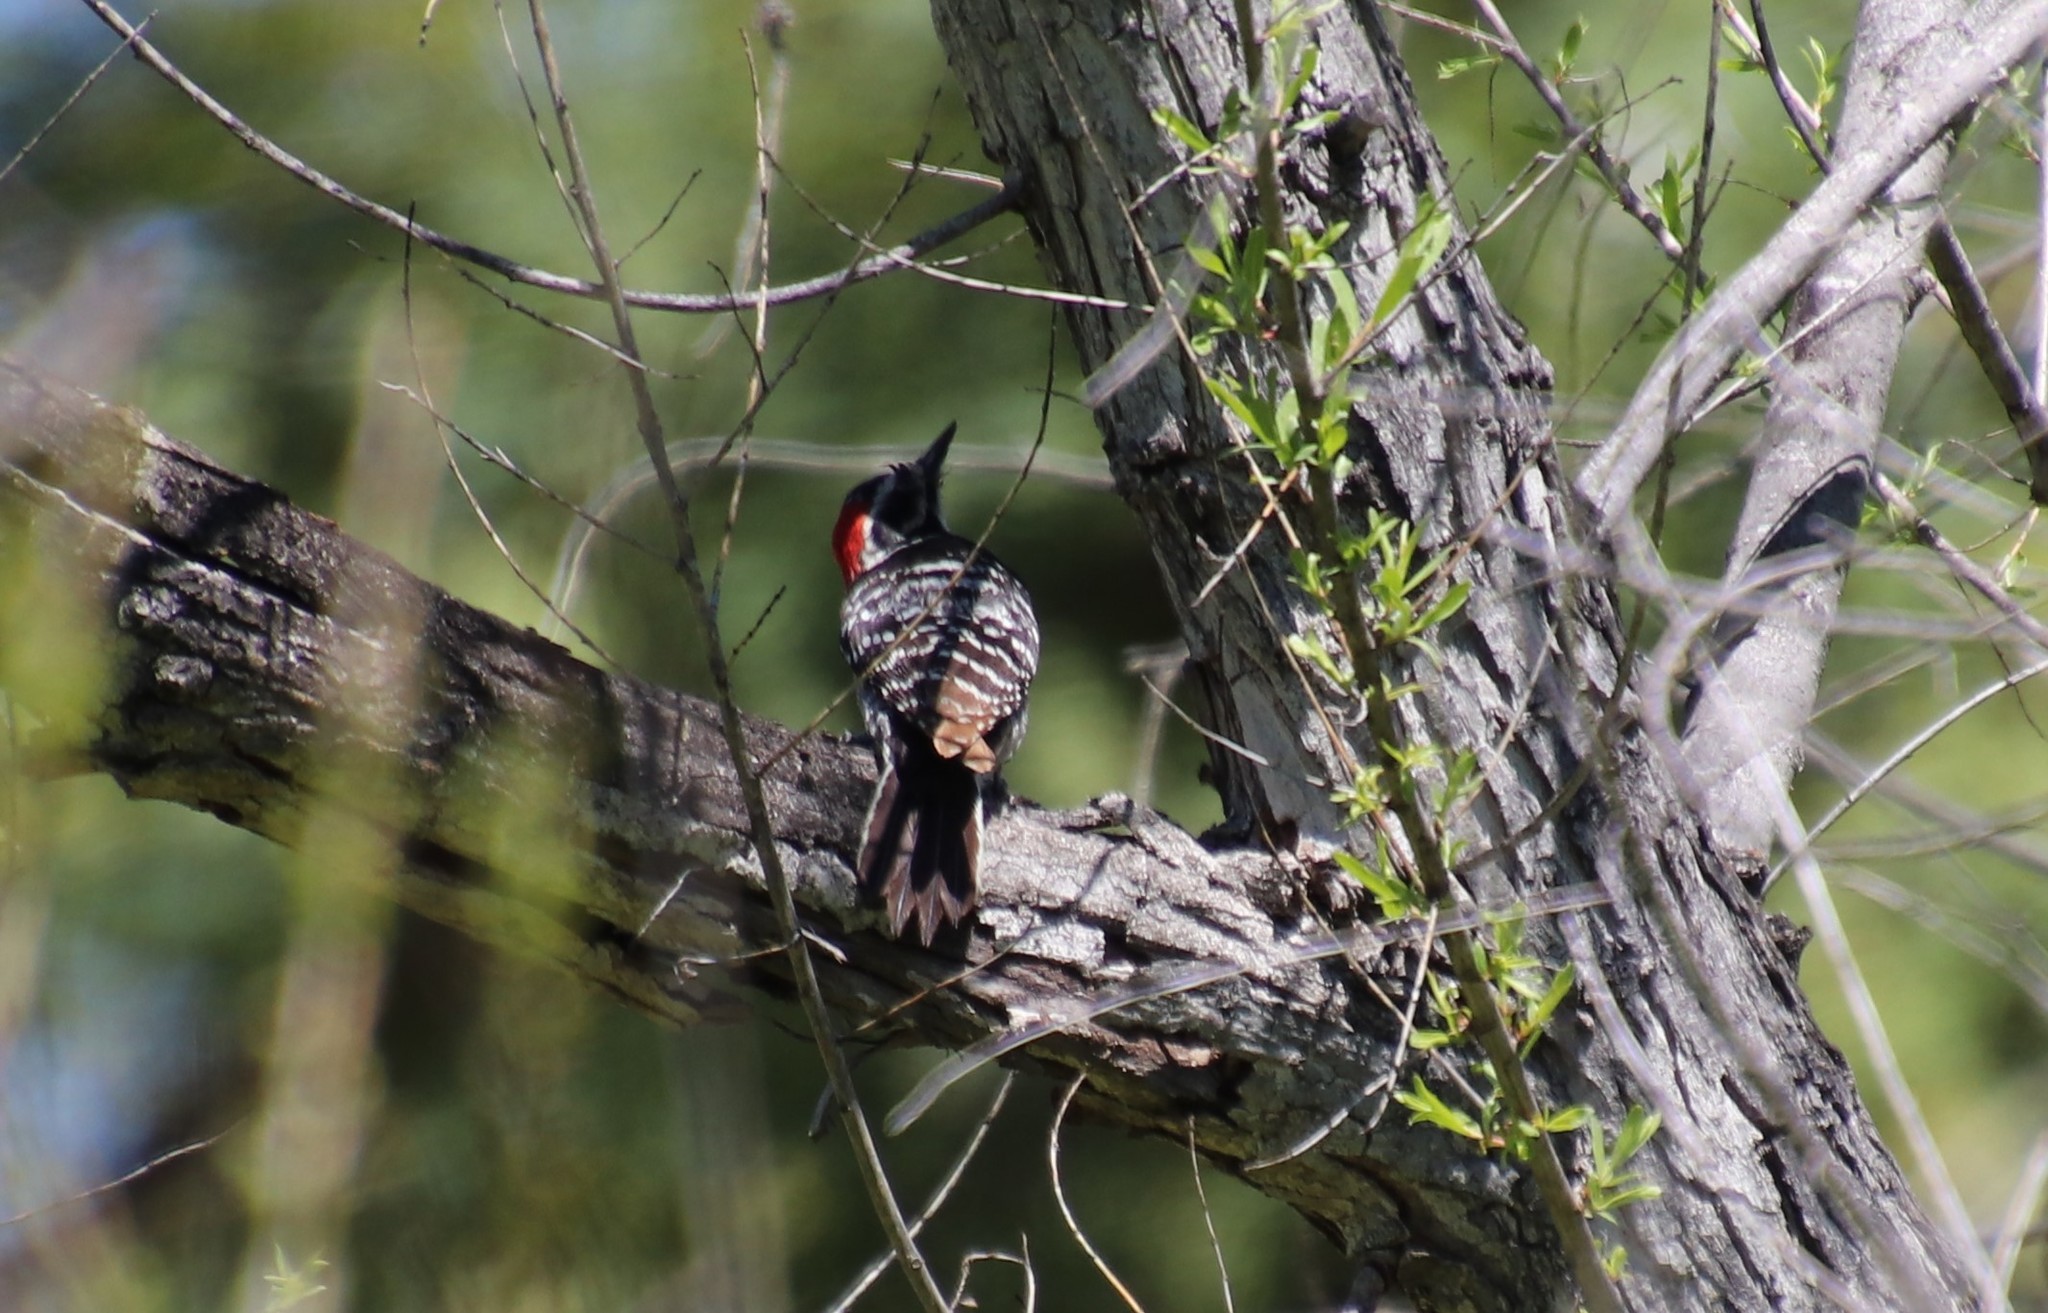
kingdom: Animalia
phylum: Chordata
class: Aves
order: Piciformes
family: Picidae
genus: Dryobates
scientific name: Dryobates nuttallii
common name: Nuttall's woodpecker
